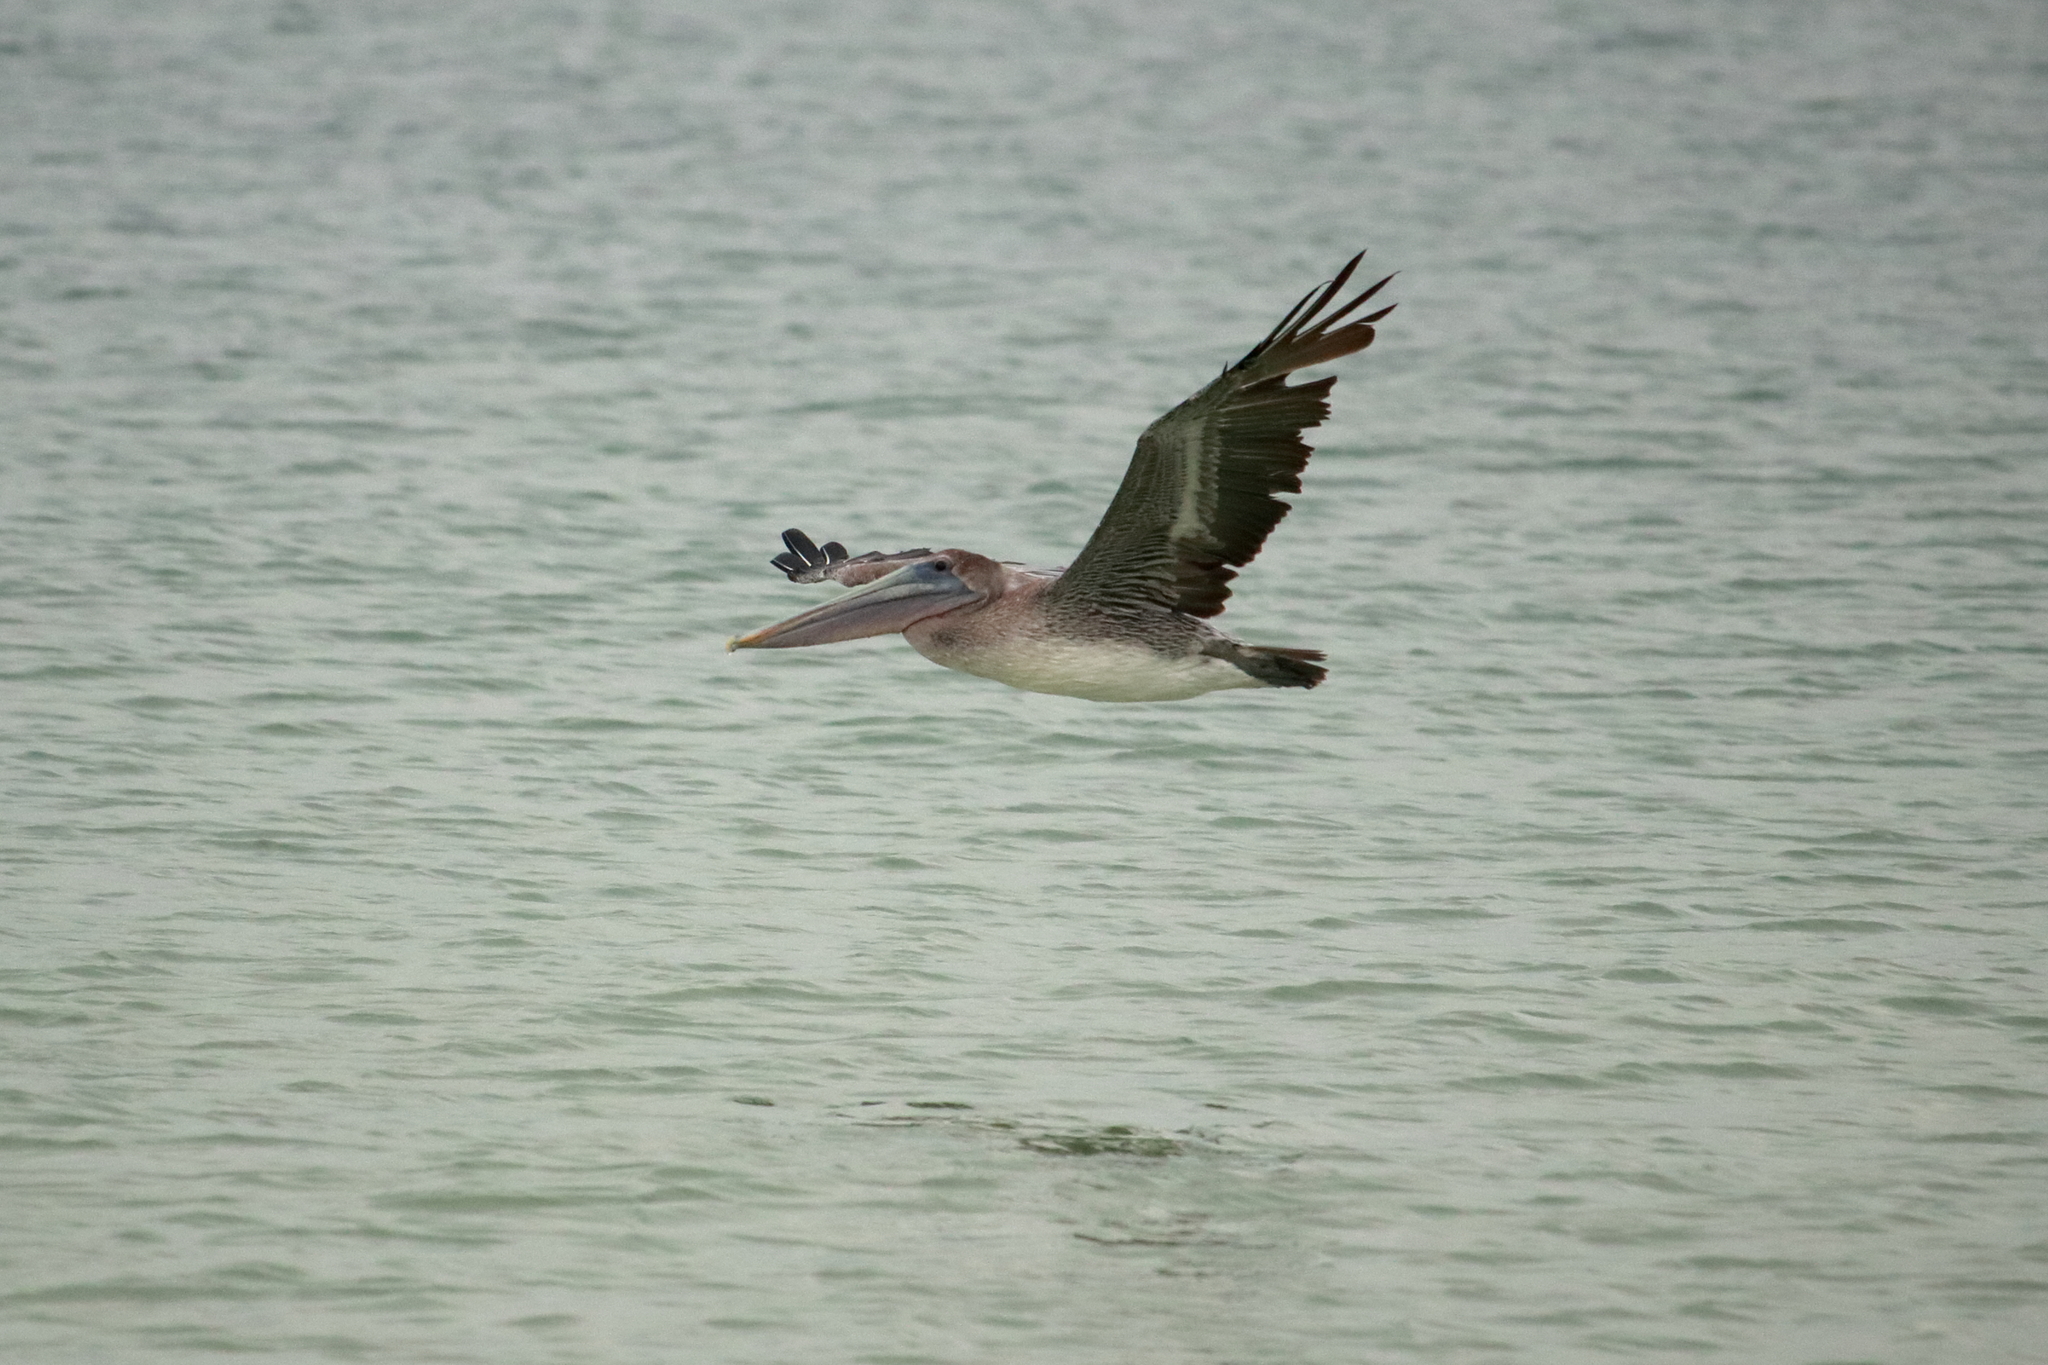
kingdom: Animalia
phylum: Chordata
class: Aves
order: Pelecaniformes
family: Pelecanidae
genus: Pelecanus
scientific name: Pelecanus occidentalis
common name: Brown pelican
